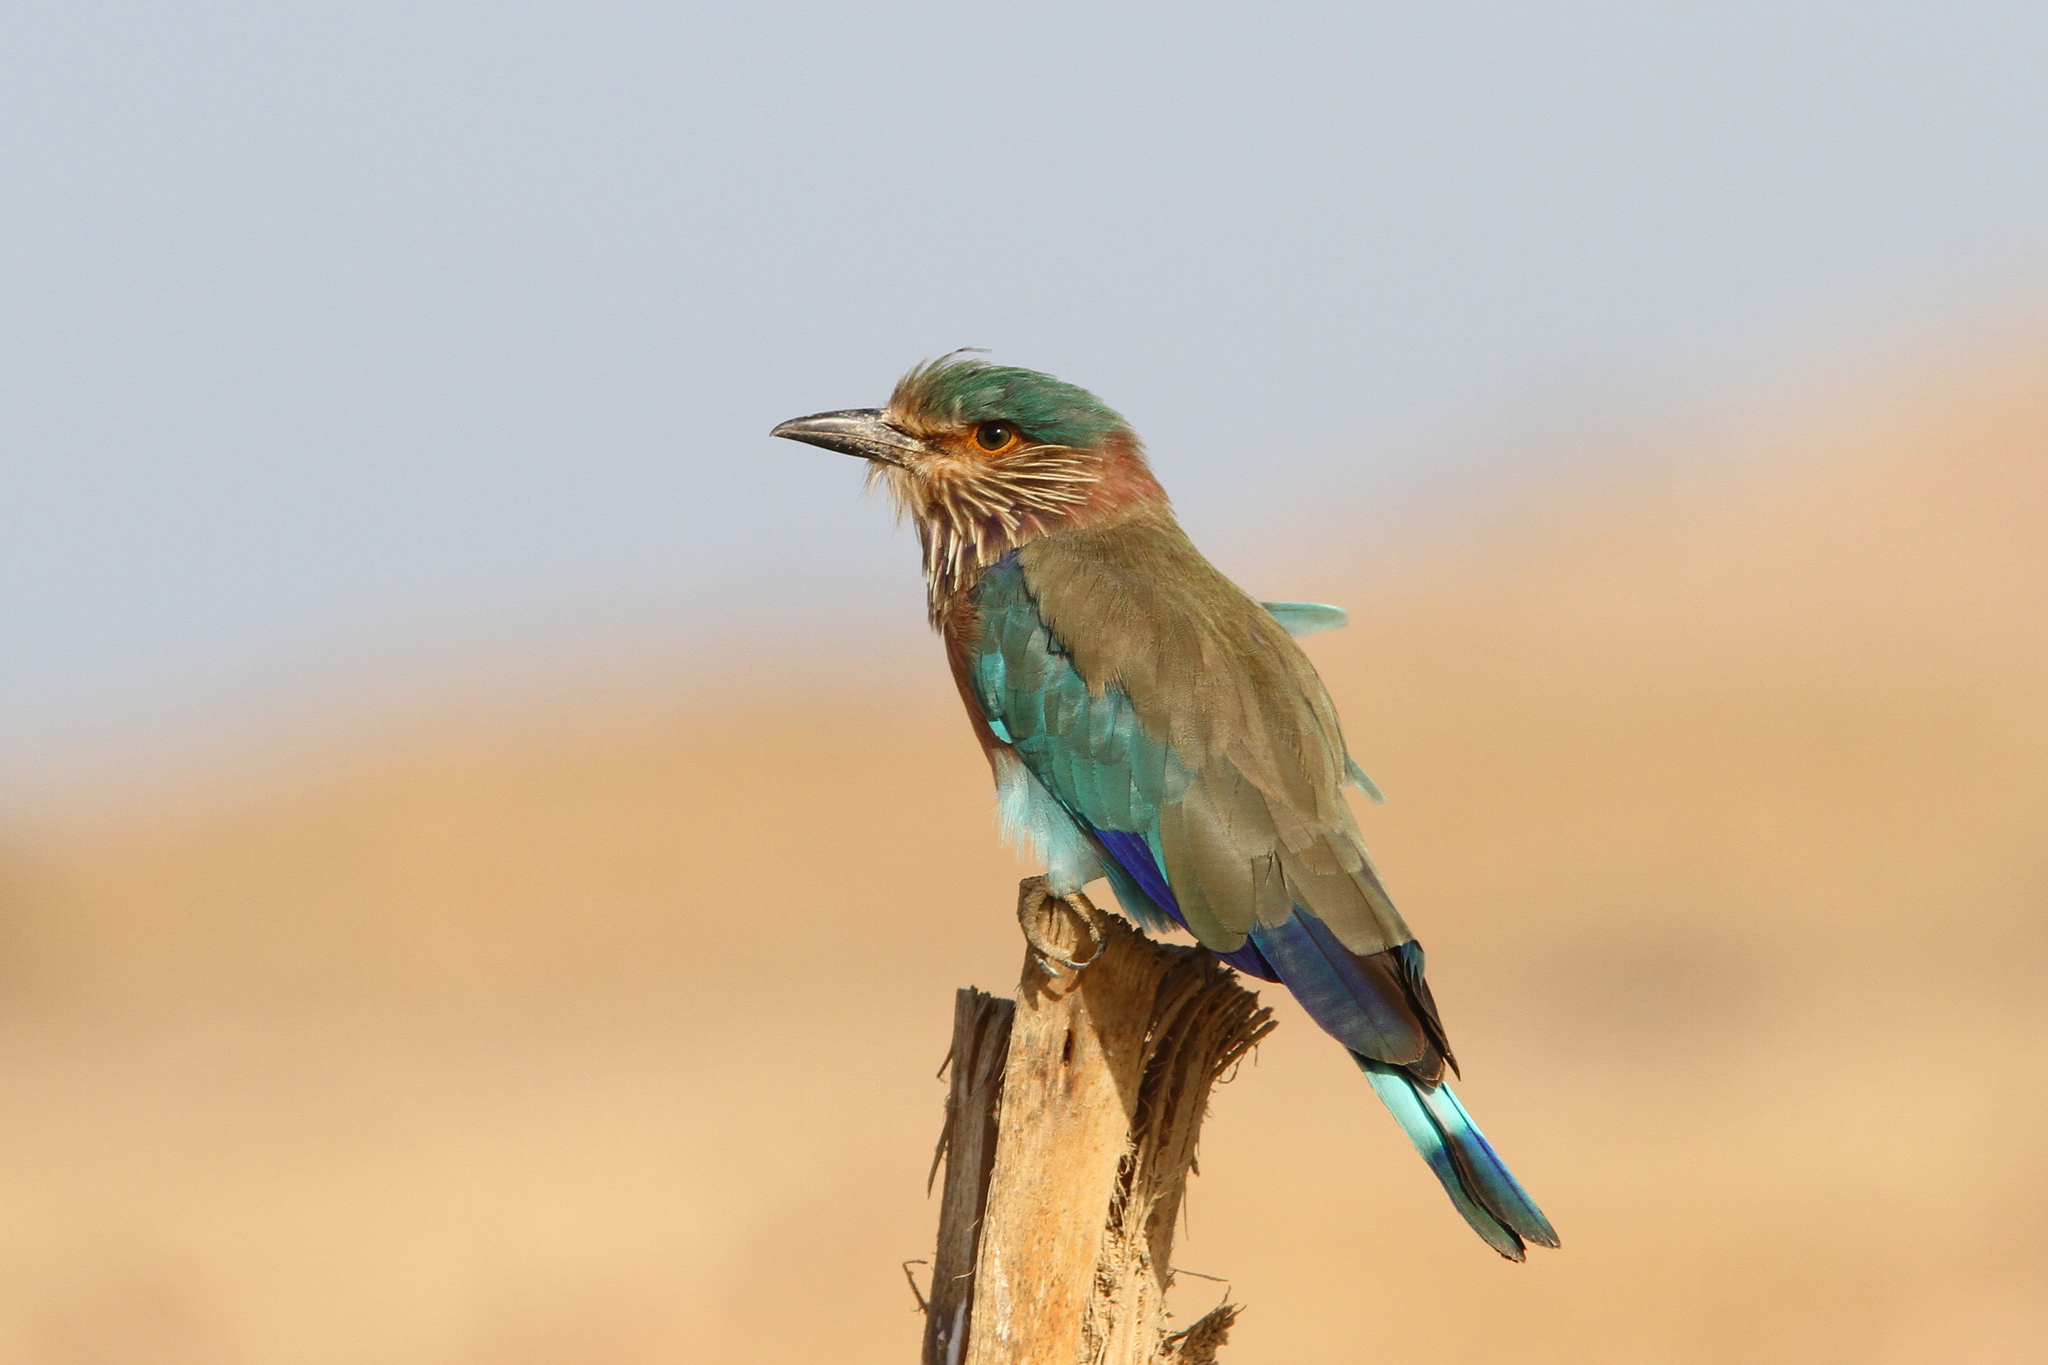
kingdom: Animalia
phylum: Chordata
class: Aves
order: Coraciiformes
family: Coraciidae
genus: Coracias
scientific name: Coracias benghalensis
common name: Indian roller
